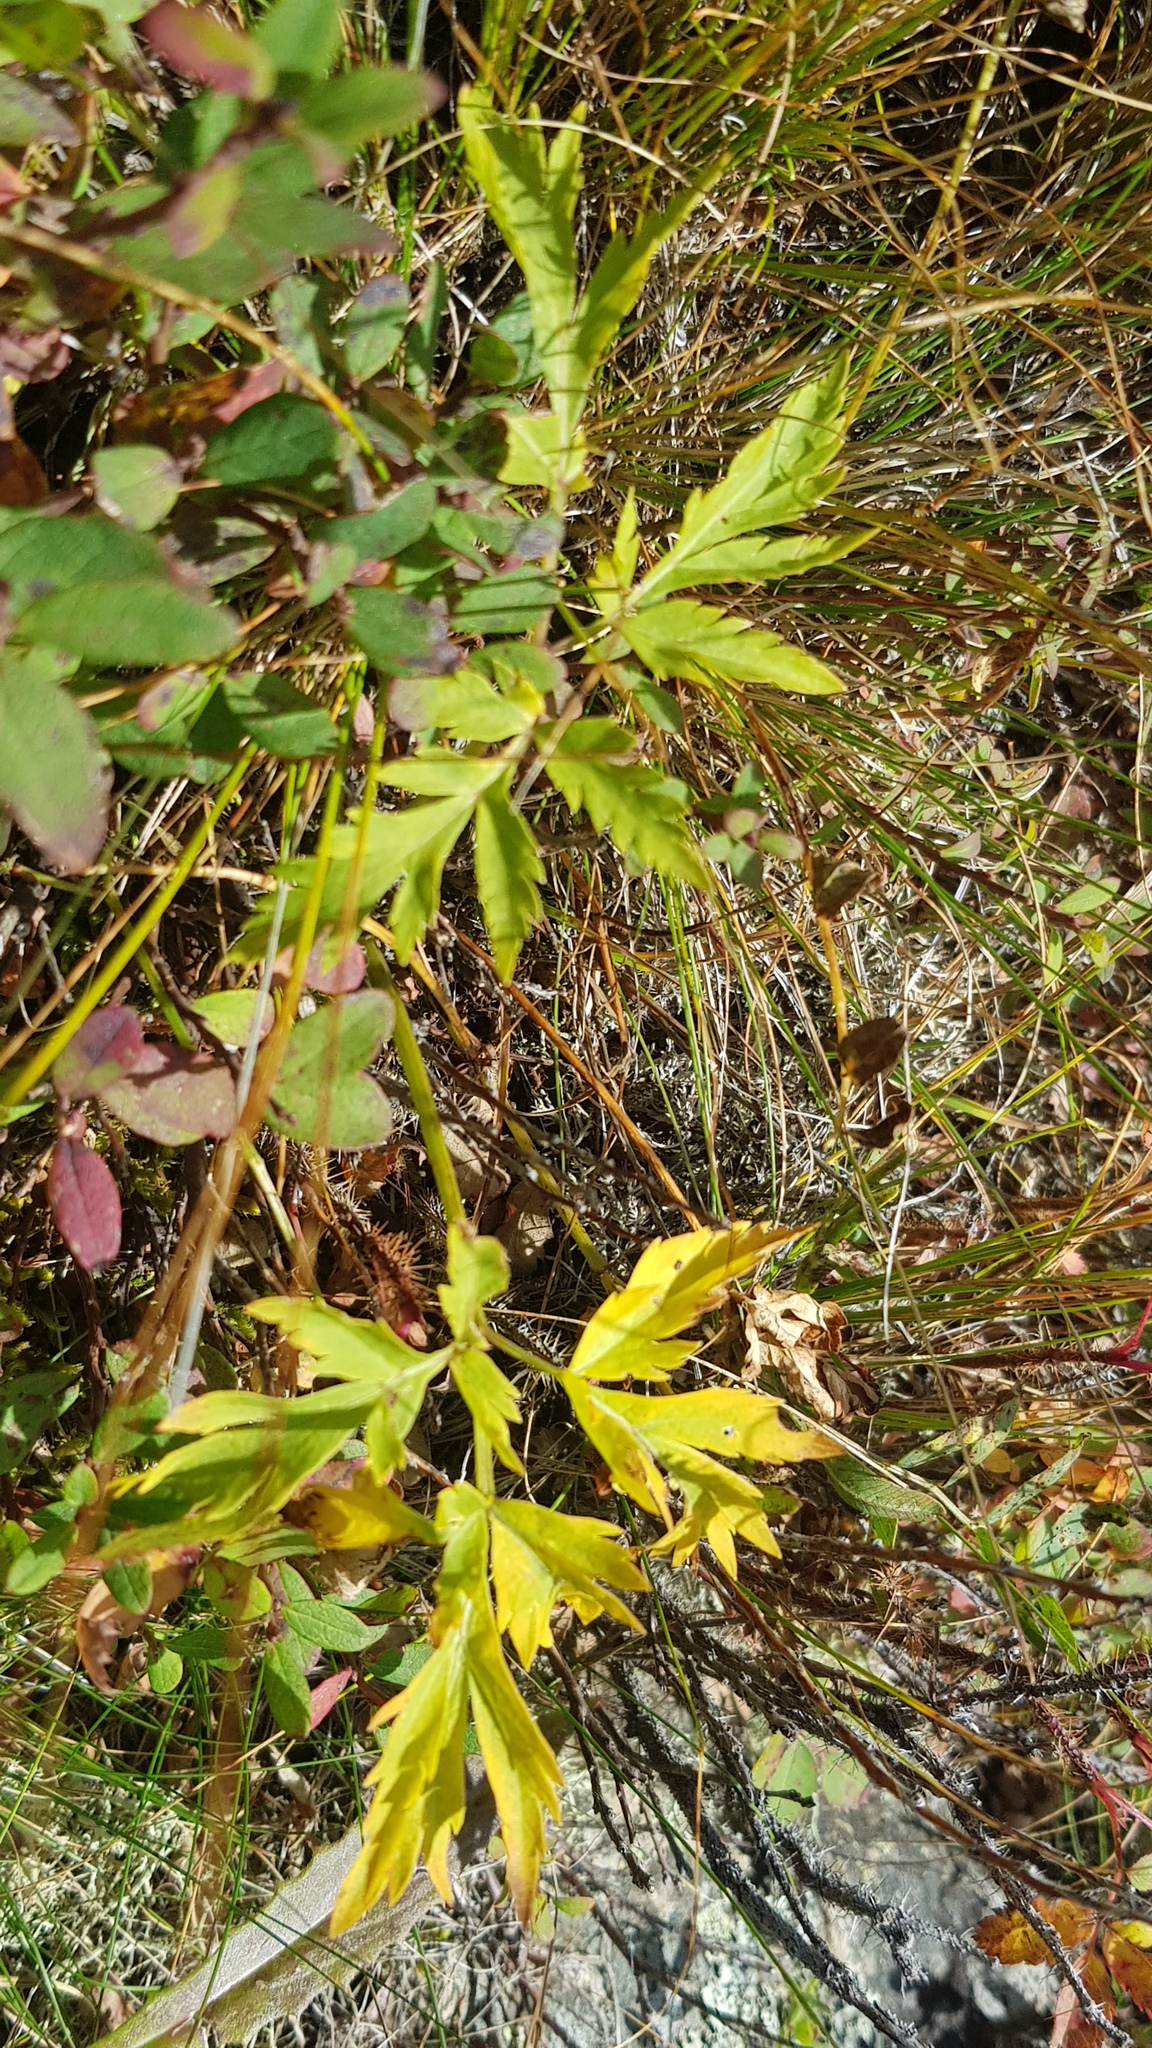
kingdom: Plantae
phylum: Tracheophyta
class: Magnoliopsida
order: Apiales
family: Apiaceae
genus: Pleurospermum
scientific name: Pleurospermum uralense
